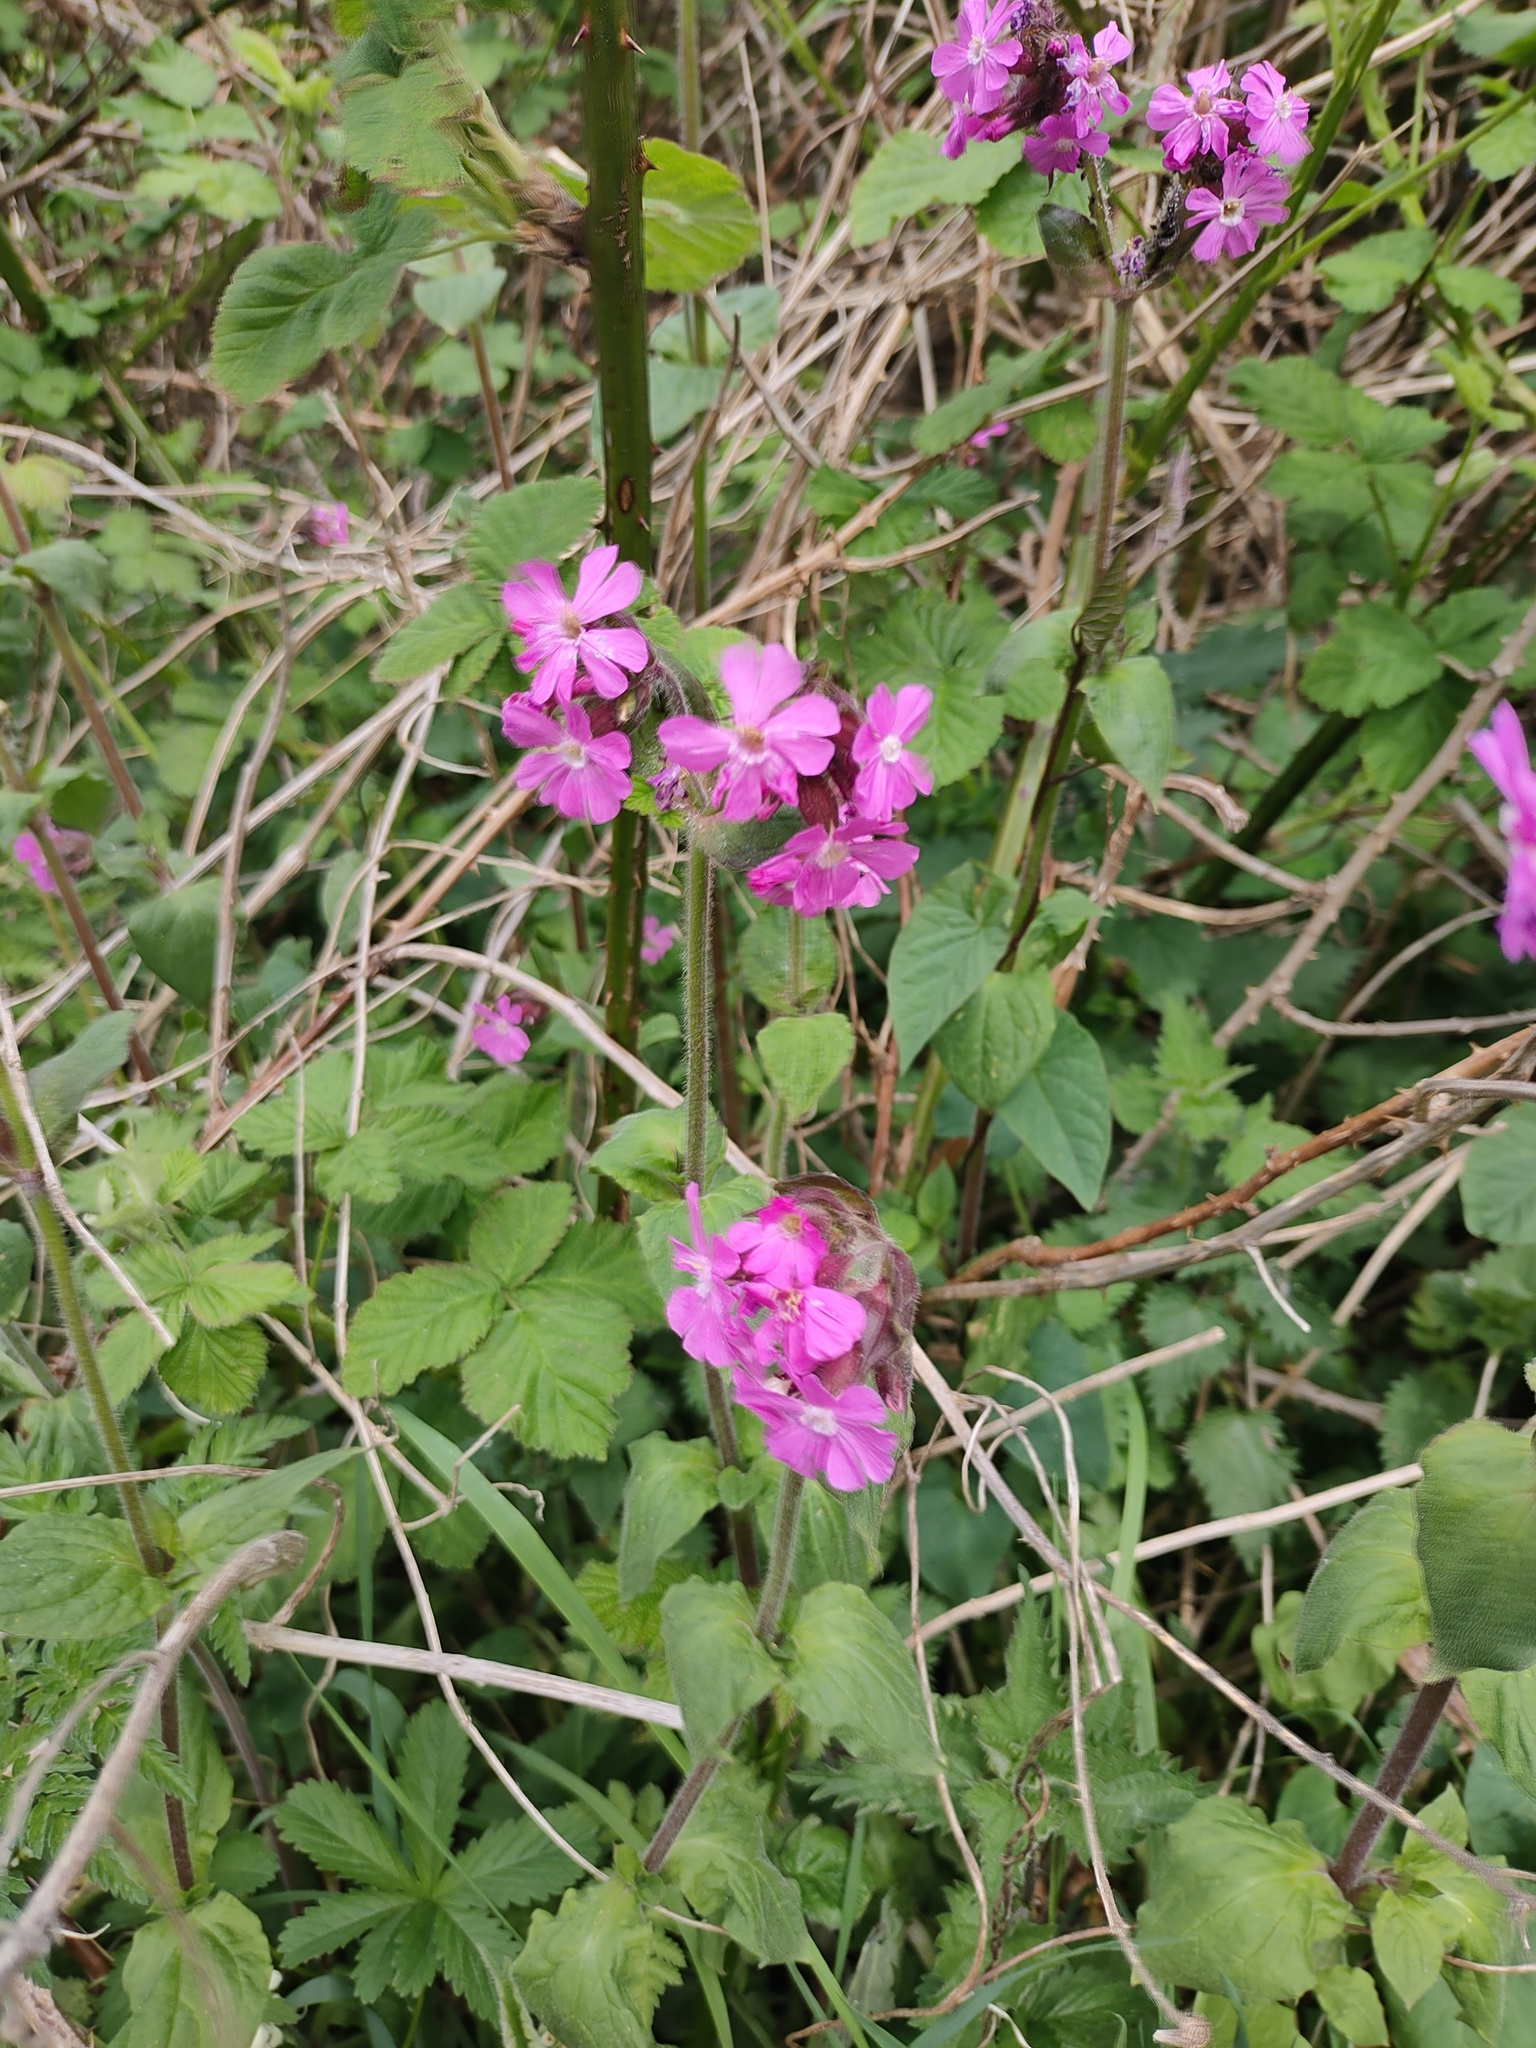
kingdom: Plantae
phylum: Tracheophyta
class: Magnoliopsida
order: Caryophyllales
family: Caryophyllaceae
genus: Silene
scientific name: Silene dioica
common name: Red campion
